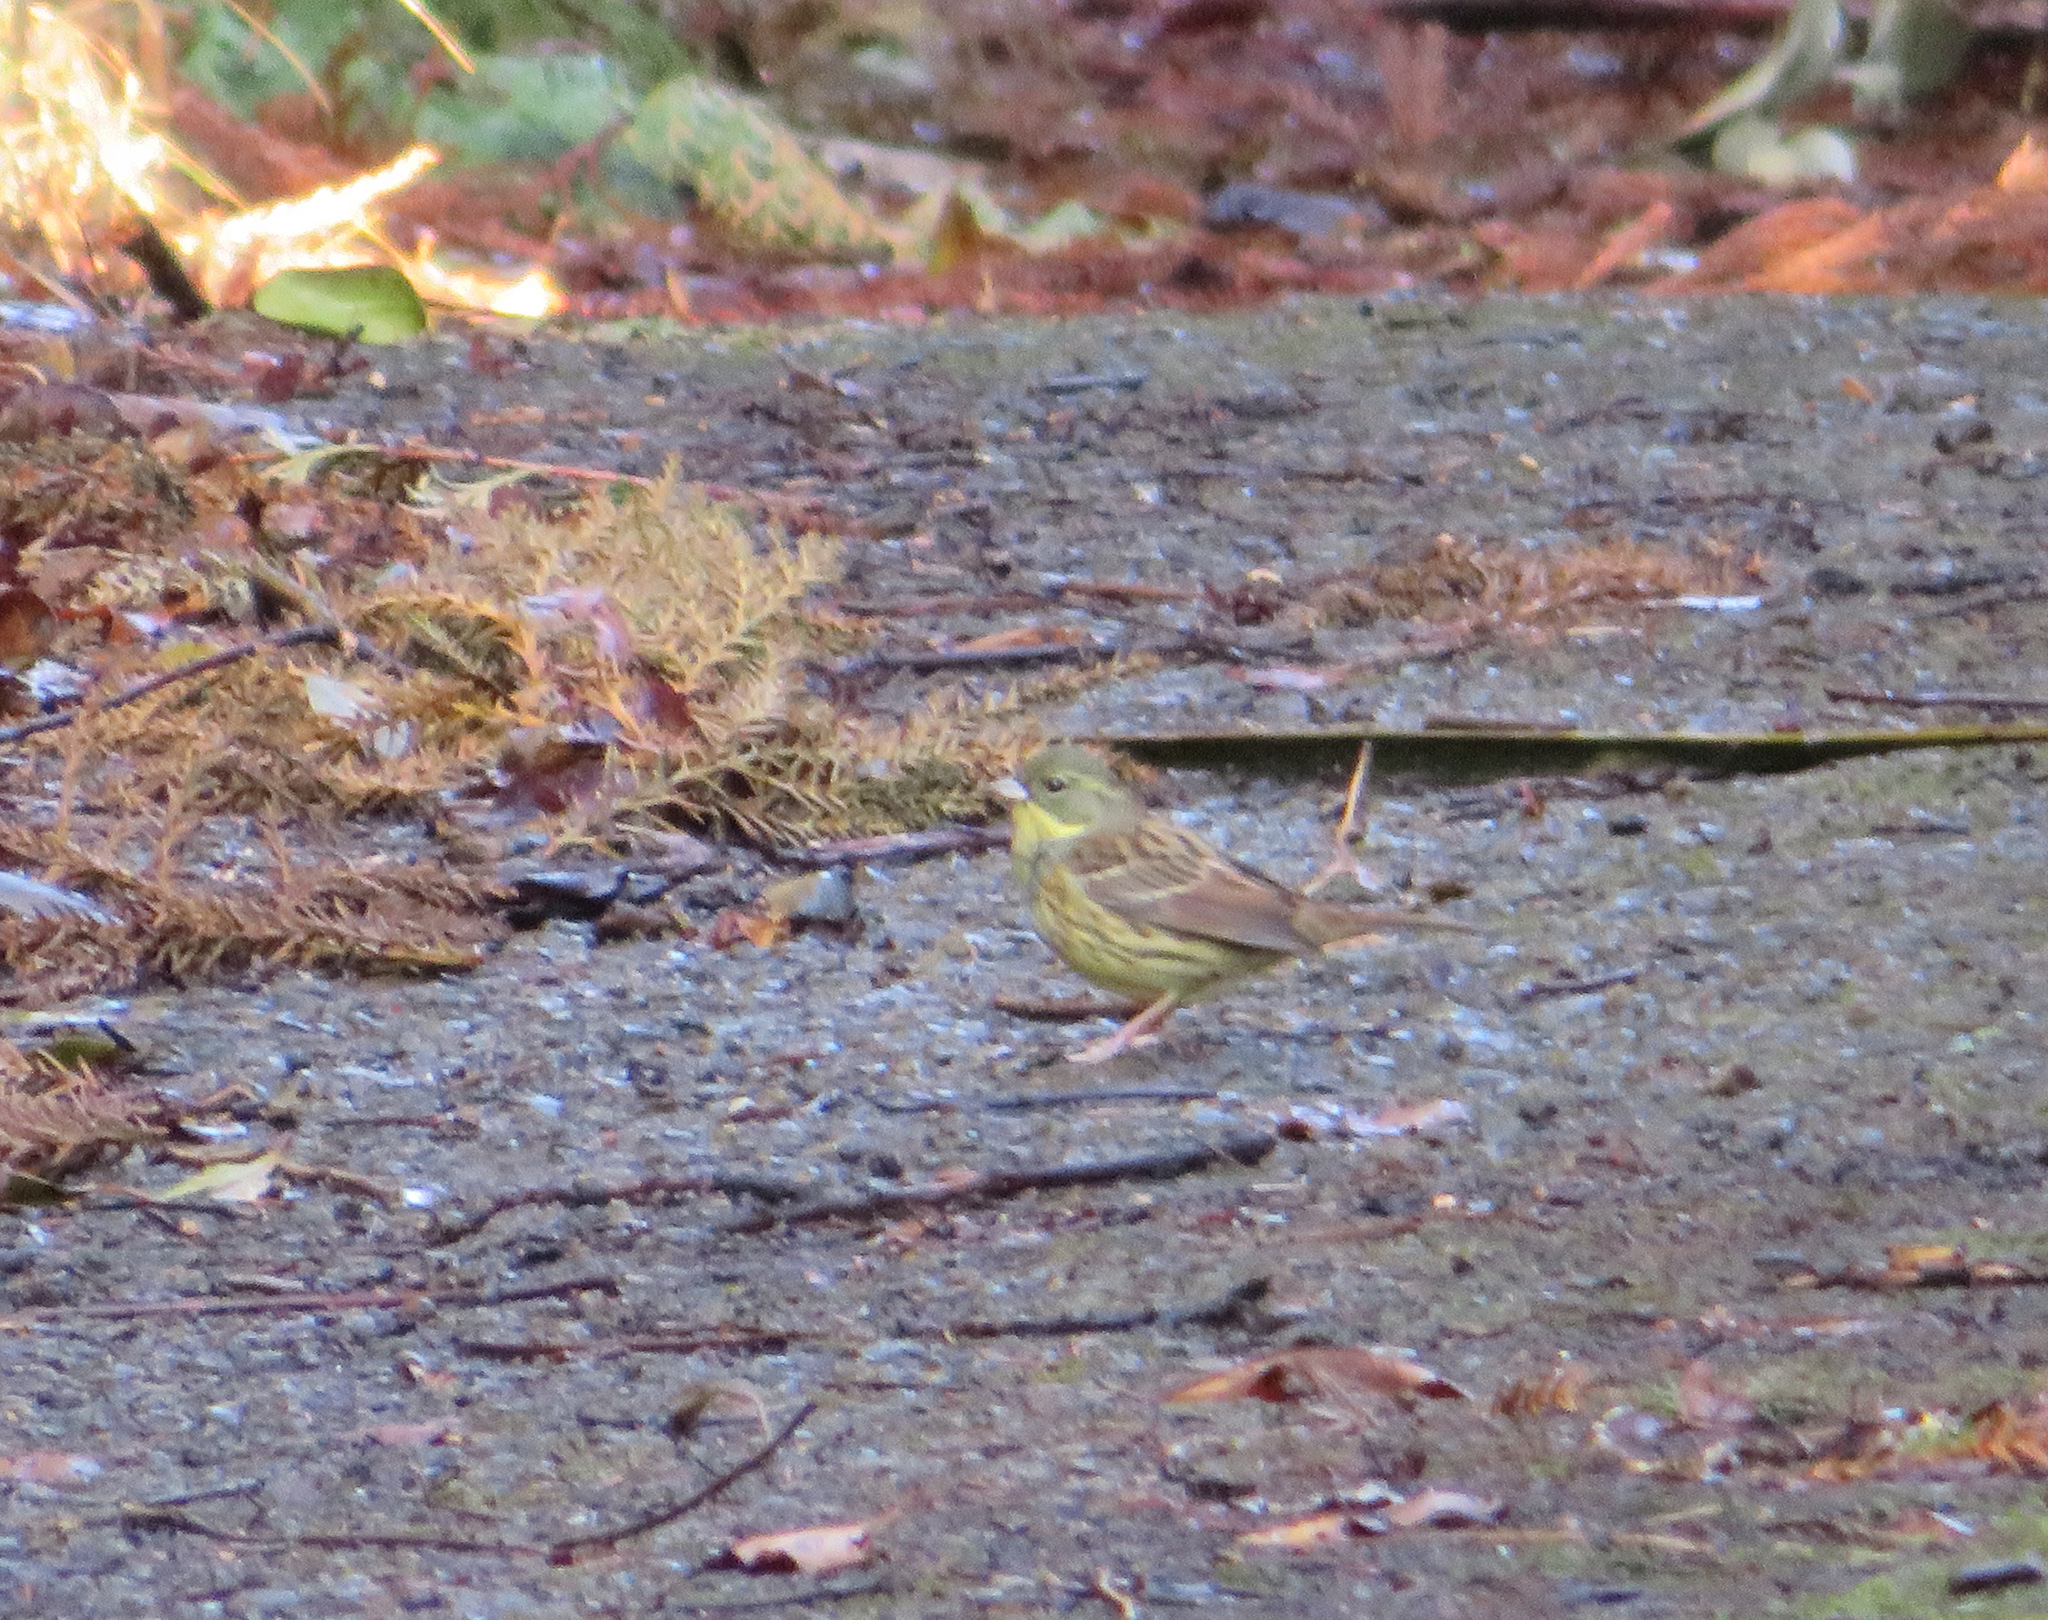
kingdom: Animalia
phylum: Chordata
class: Aves
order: Passeriformes
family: Emberizidae
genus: Emberiza
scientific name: Emberiza personata
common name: Masked bunting
